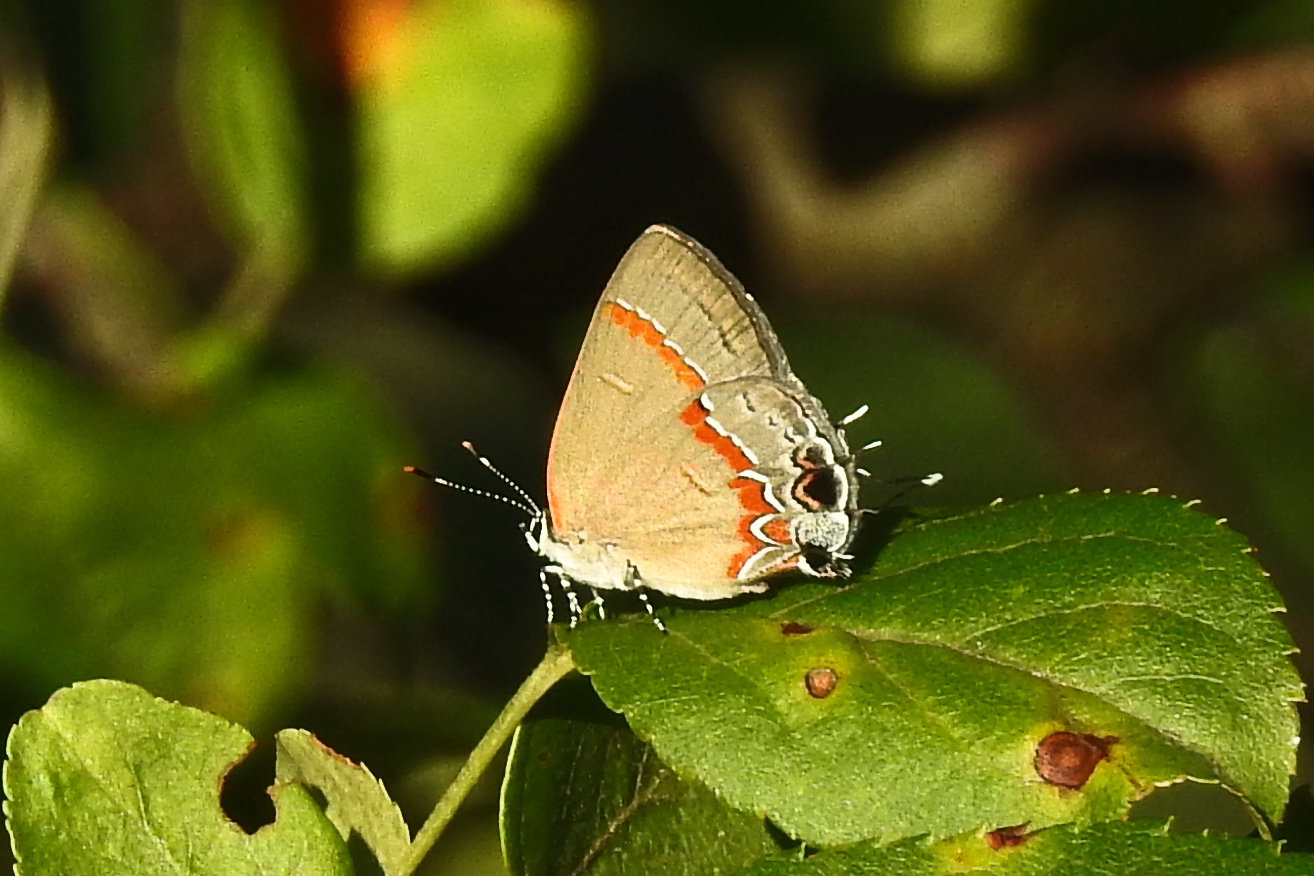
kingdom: Animalia
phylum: Arthropoda
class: Insecta
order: Lepidoptera
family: Lycaenidae
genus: Calycopis
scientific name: Calycopis cecrops
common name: Red-banded hairstreak
